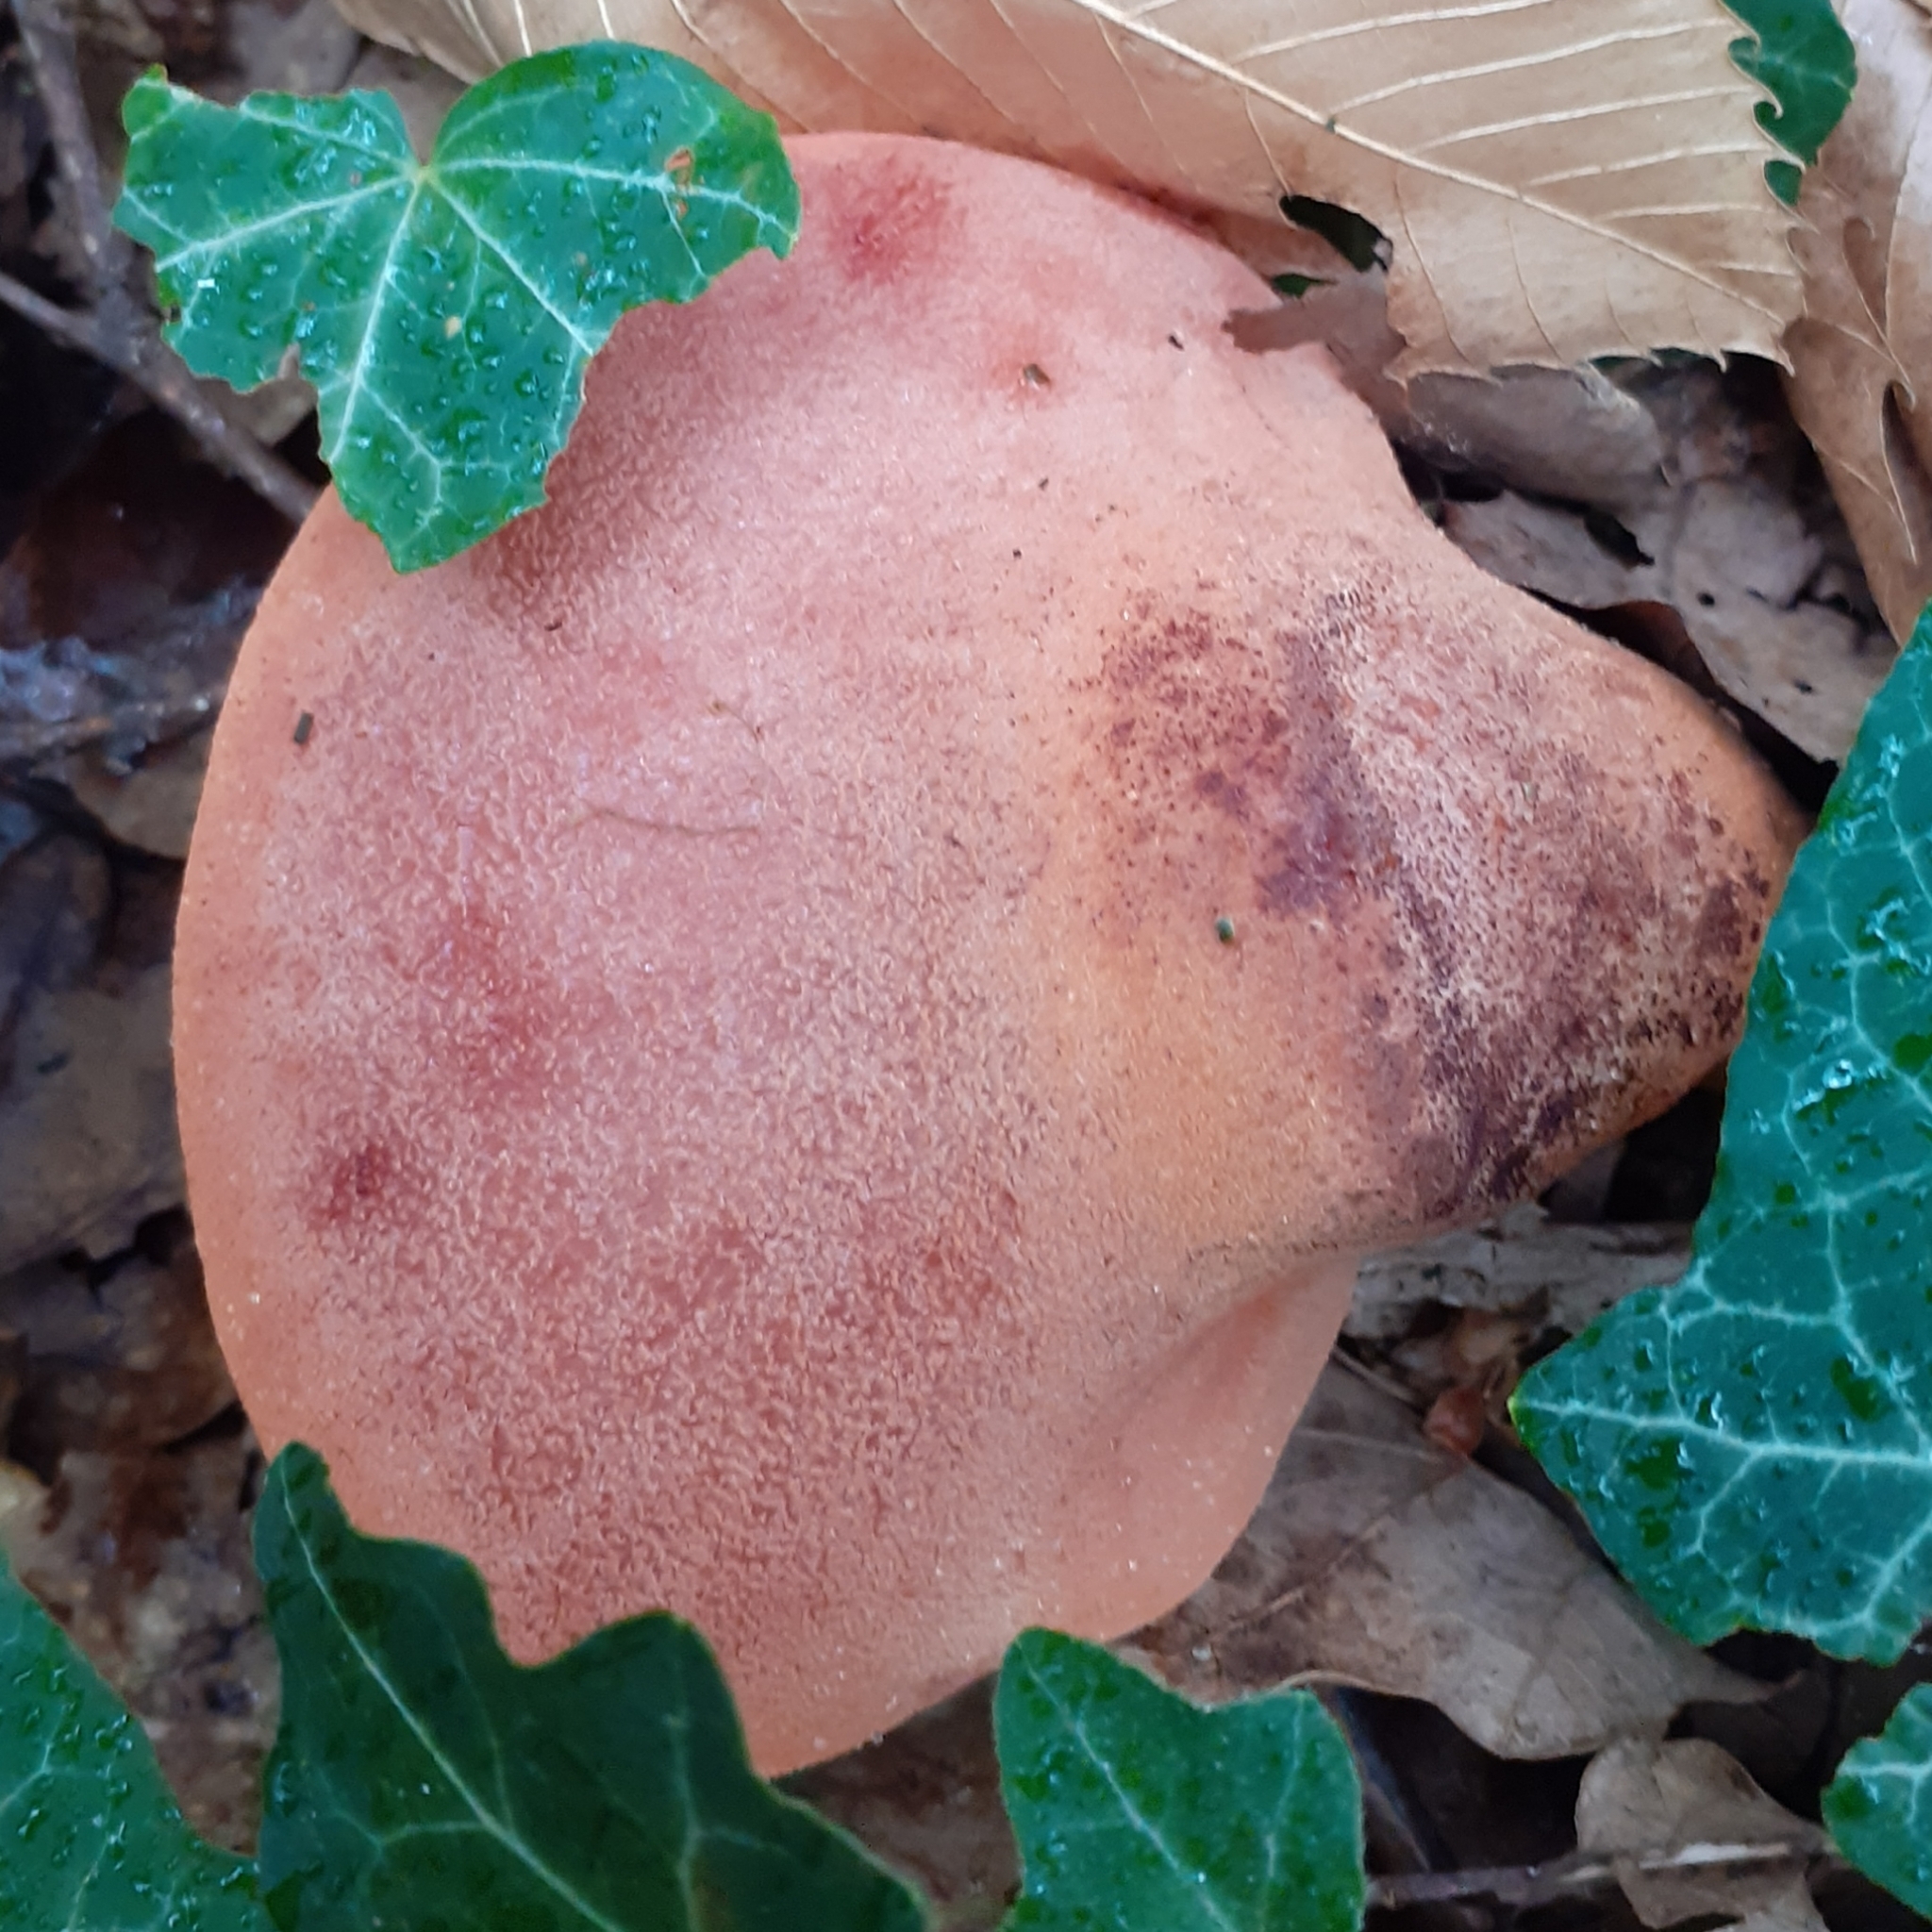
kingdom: Fungi
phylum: Basidiomycota
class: Agaricomycetes
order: Agaricales
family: Fistulinaceae
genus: Fistulina
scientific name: Fistulina hepatica
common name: Beef-steak fungus
